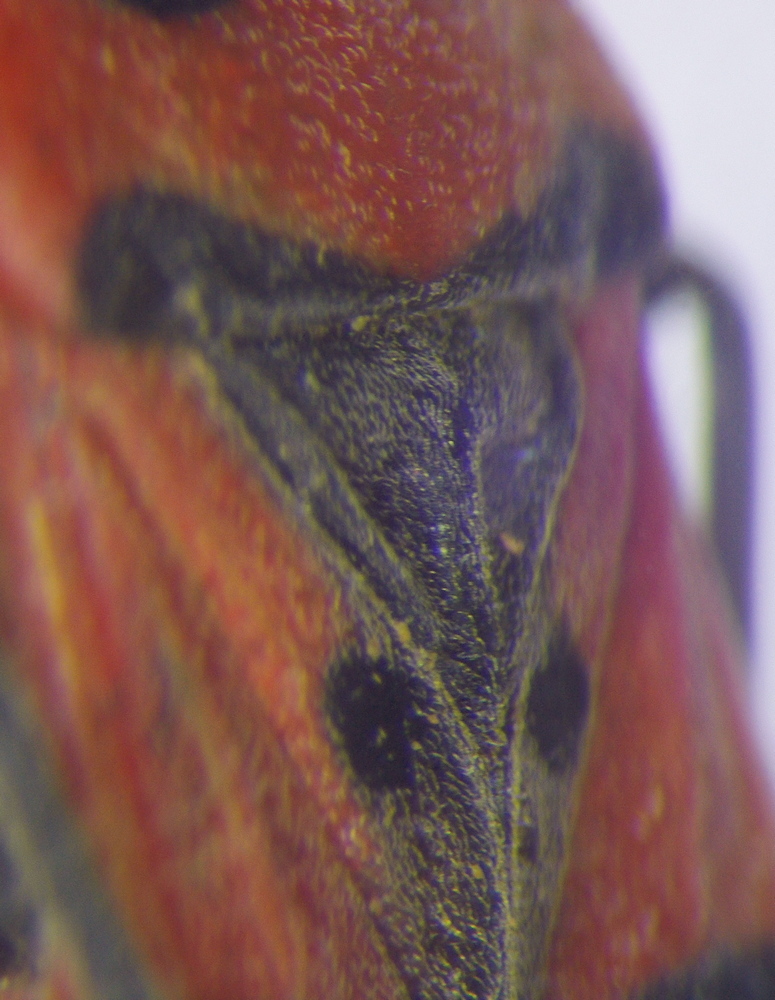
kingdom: Animalia
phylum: Arthropoda
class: Insecta
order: Hemiptera
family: Lygaeidae
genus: Lygaeus
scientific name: Lygaeus equestris
